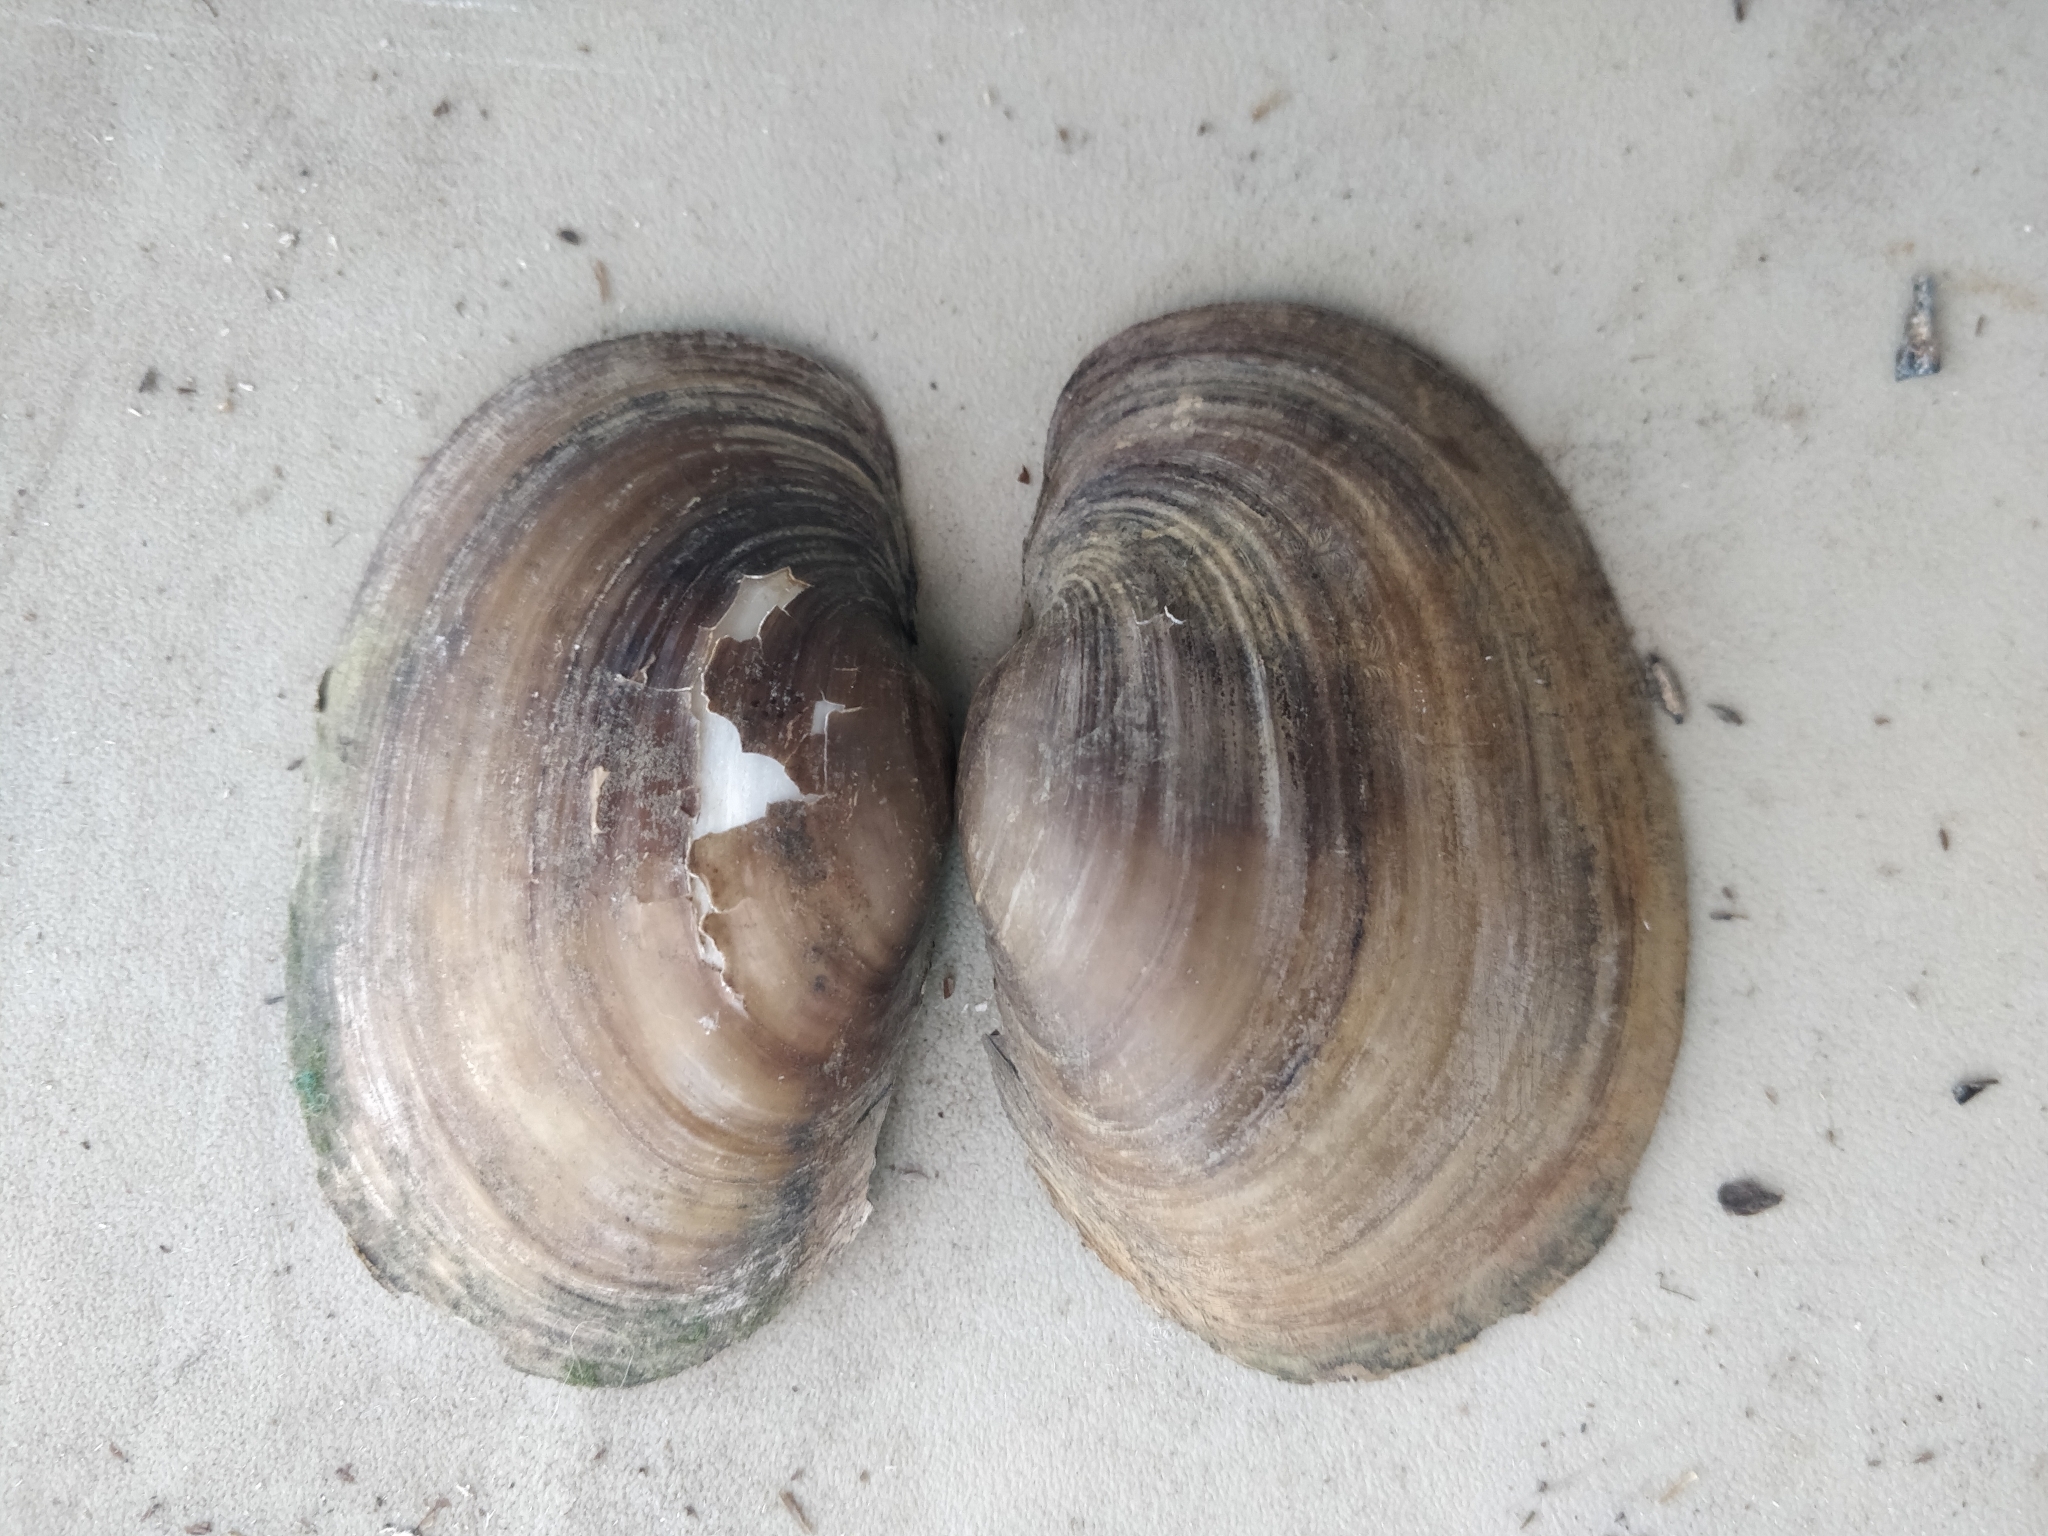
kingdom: Animalia
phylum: Mollusca
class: Bivalvia
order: Unionida
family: Unionidae
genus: Lampsilis
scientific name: Lampsilis cardium
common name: Plain pocketbook
